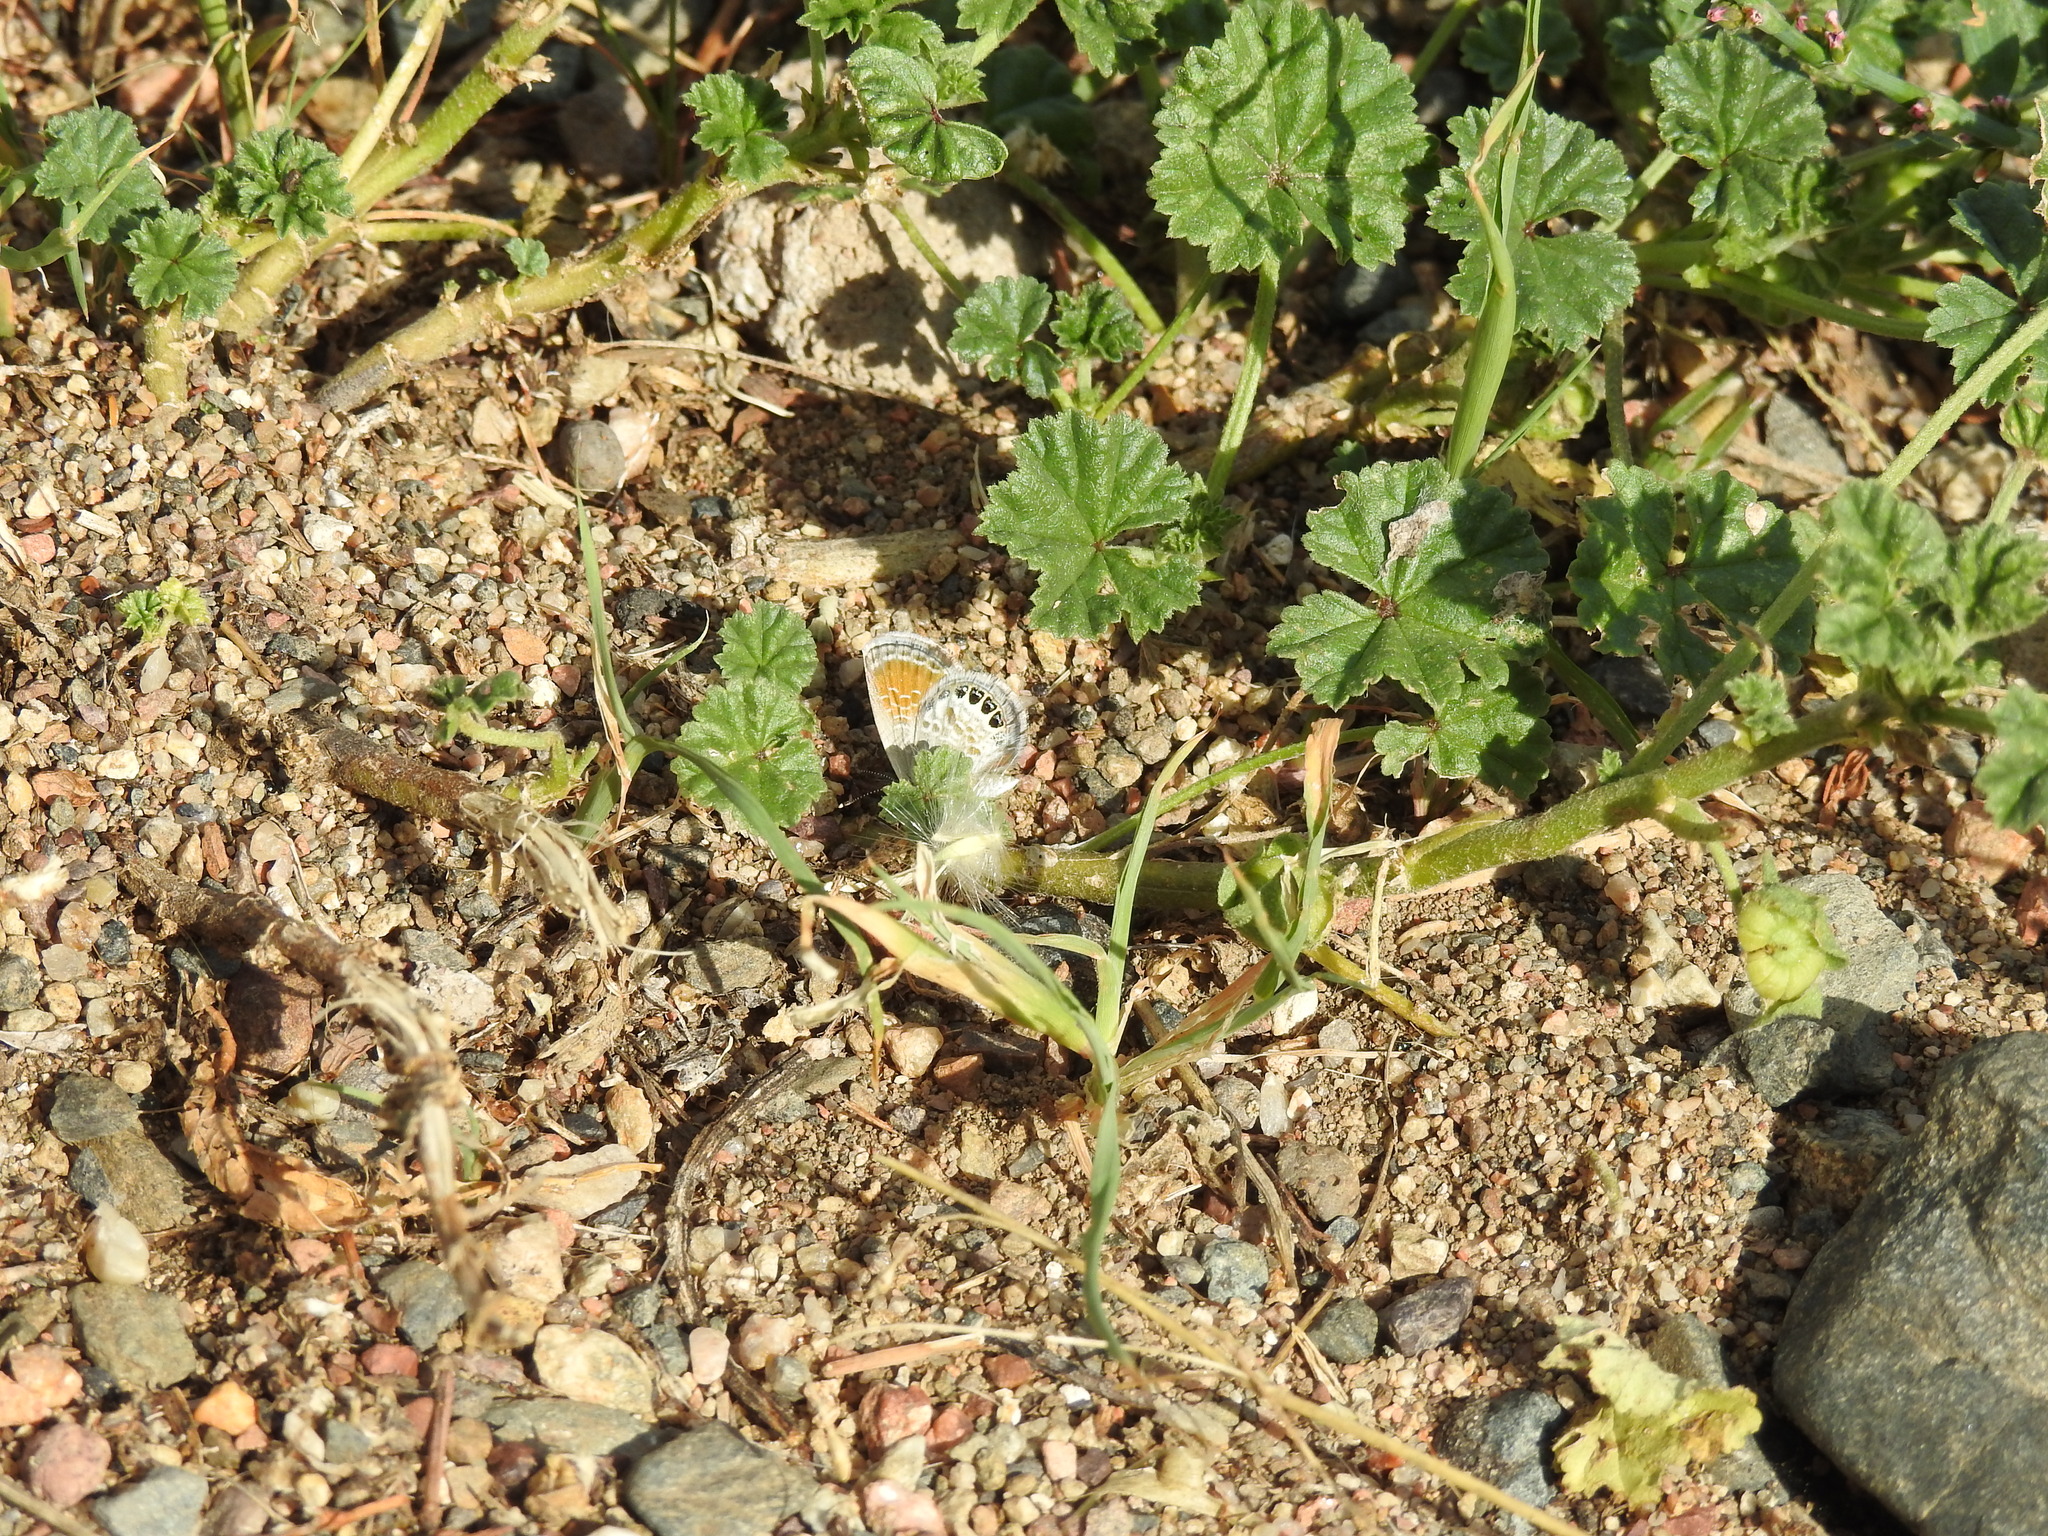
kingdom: Animalia
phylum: Arthropoda
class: Insecta
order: Lepidoptera
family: Lycaenidae
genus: Brephidium
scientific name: Brephidium exilis
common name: Pygmy blue
